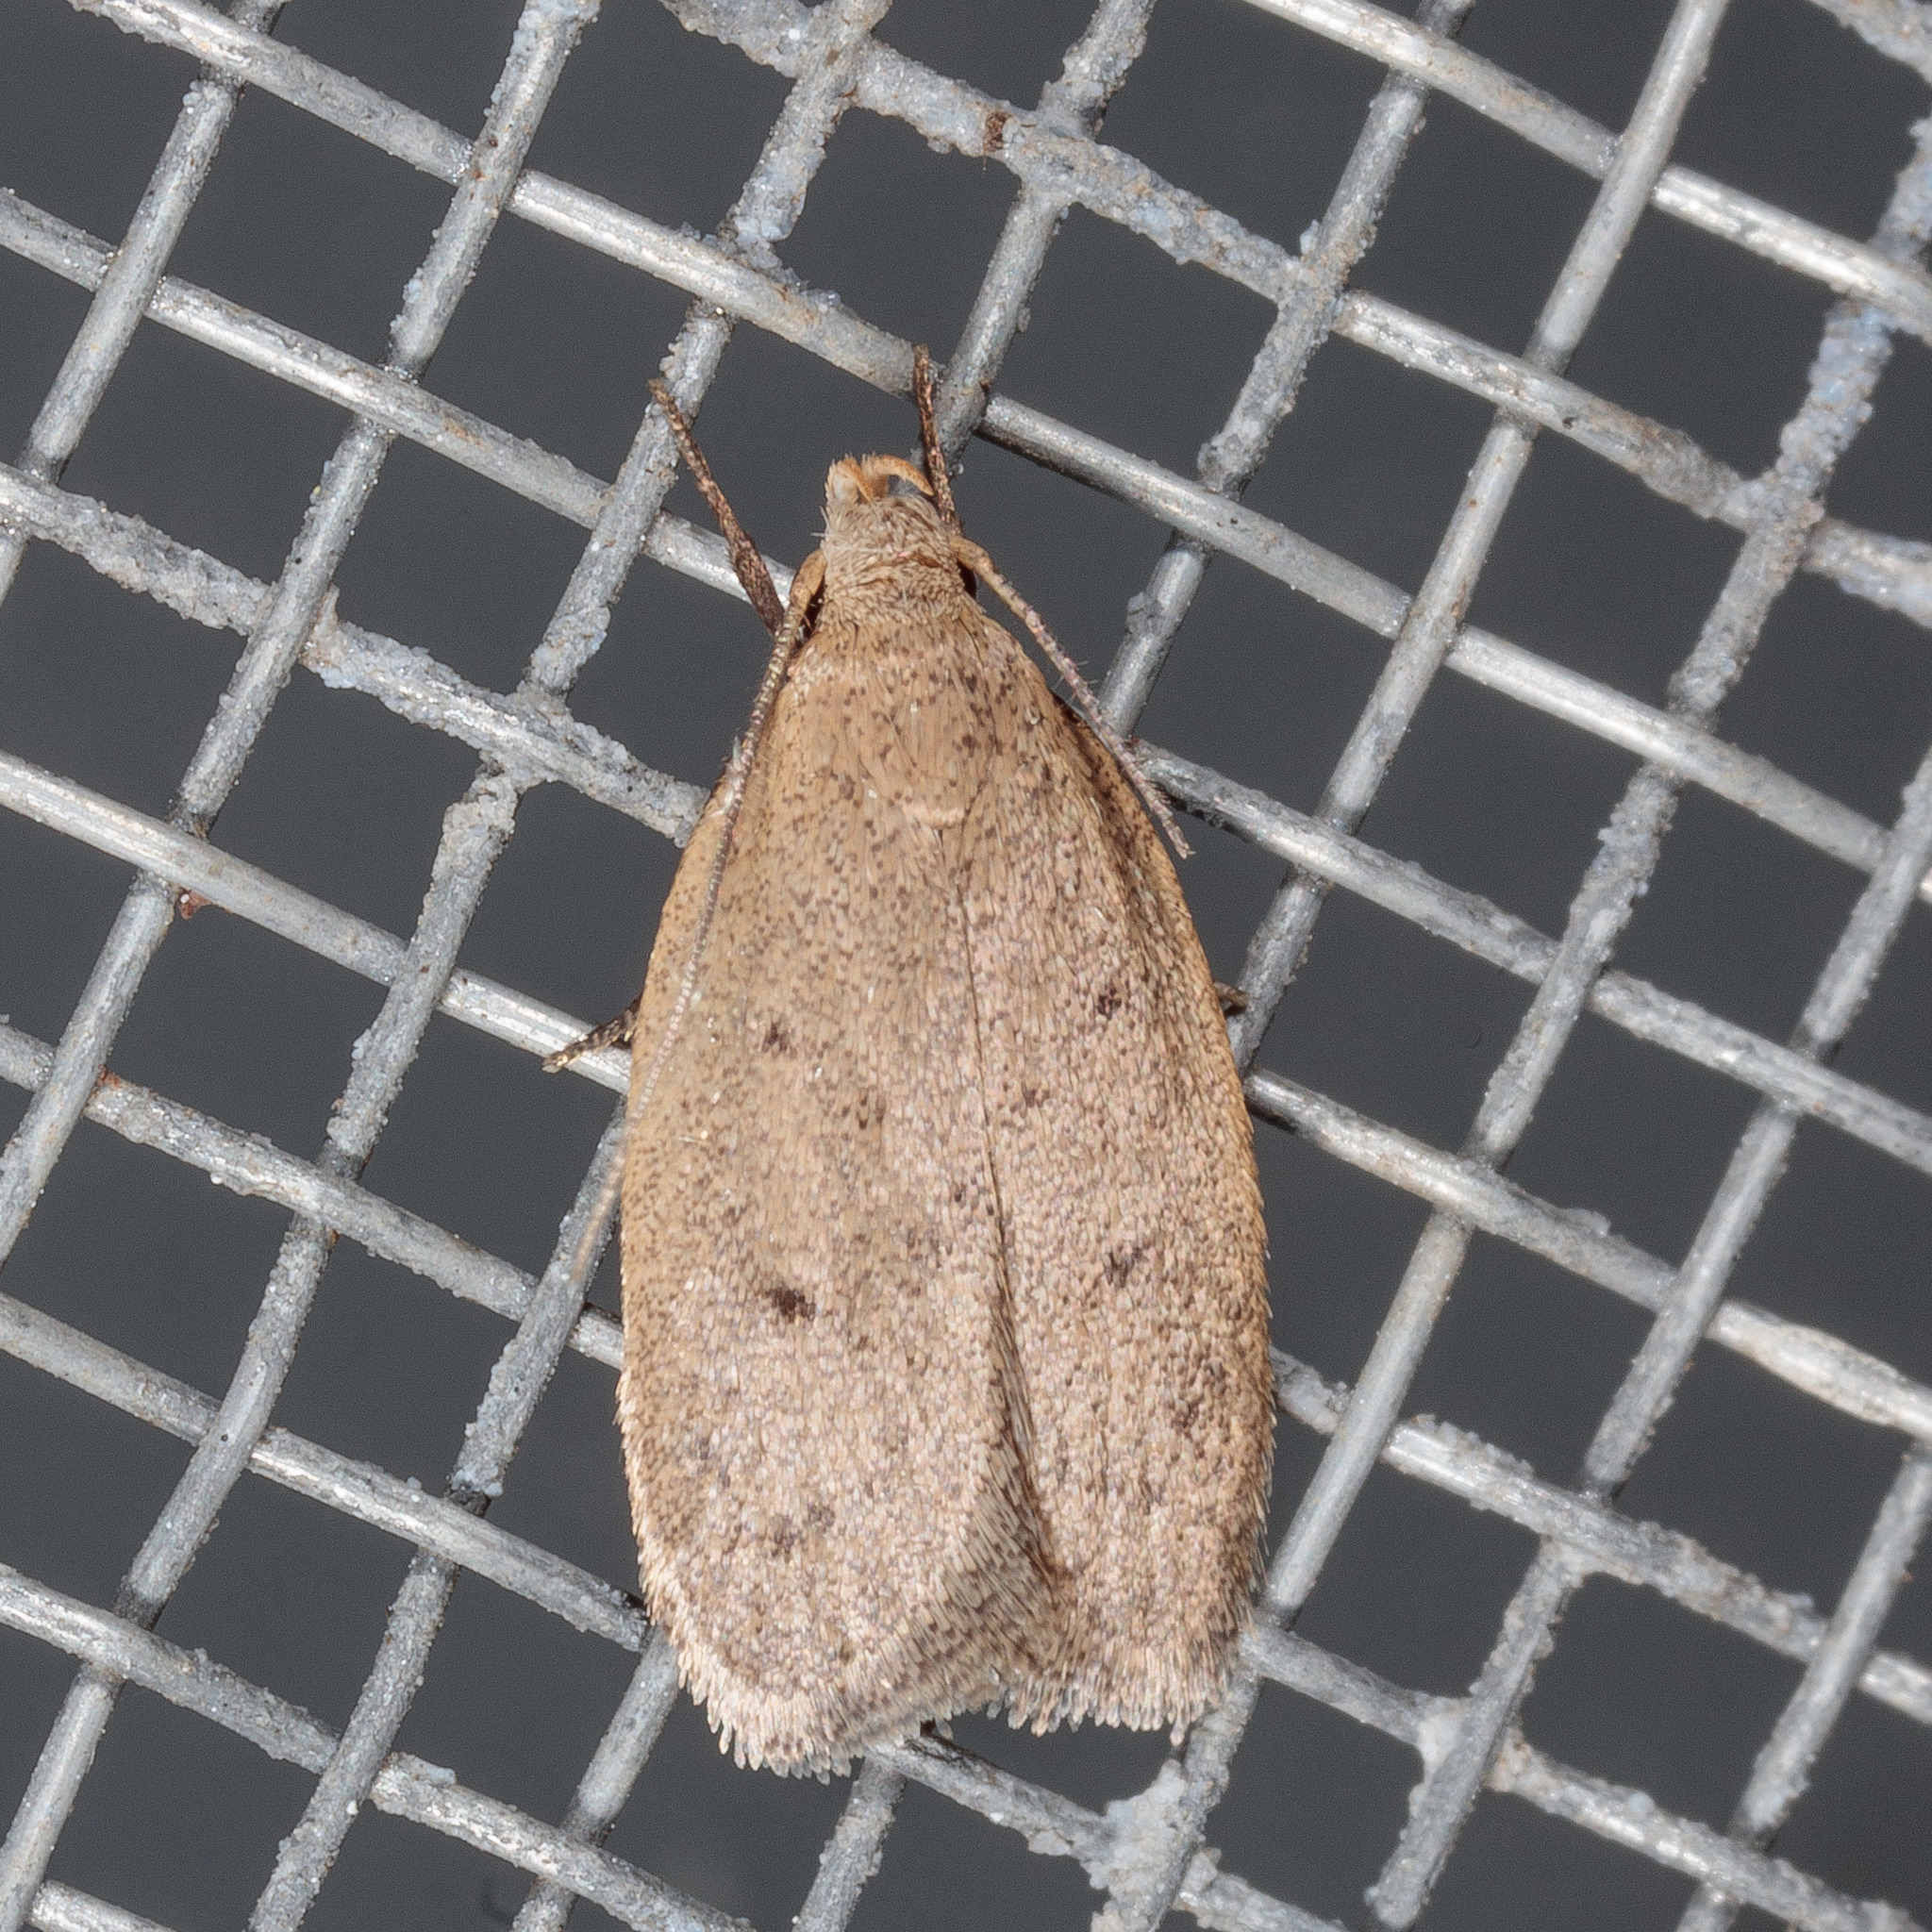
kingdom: Animalia
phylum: Arthropoda
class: Insecta
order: Lepidoptera
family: Oecophoridae
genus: Inga
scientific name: Inga obscuromaculella
